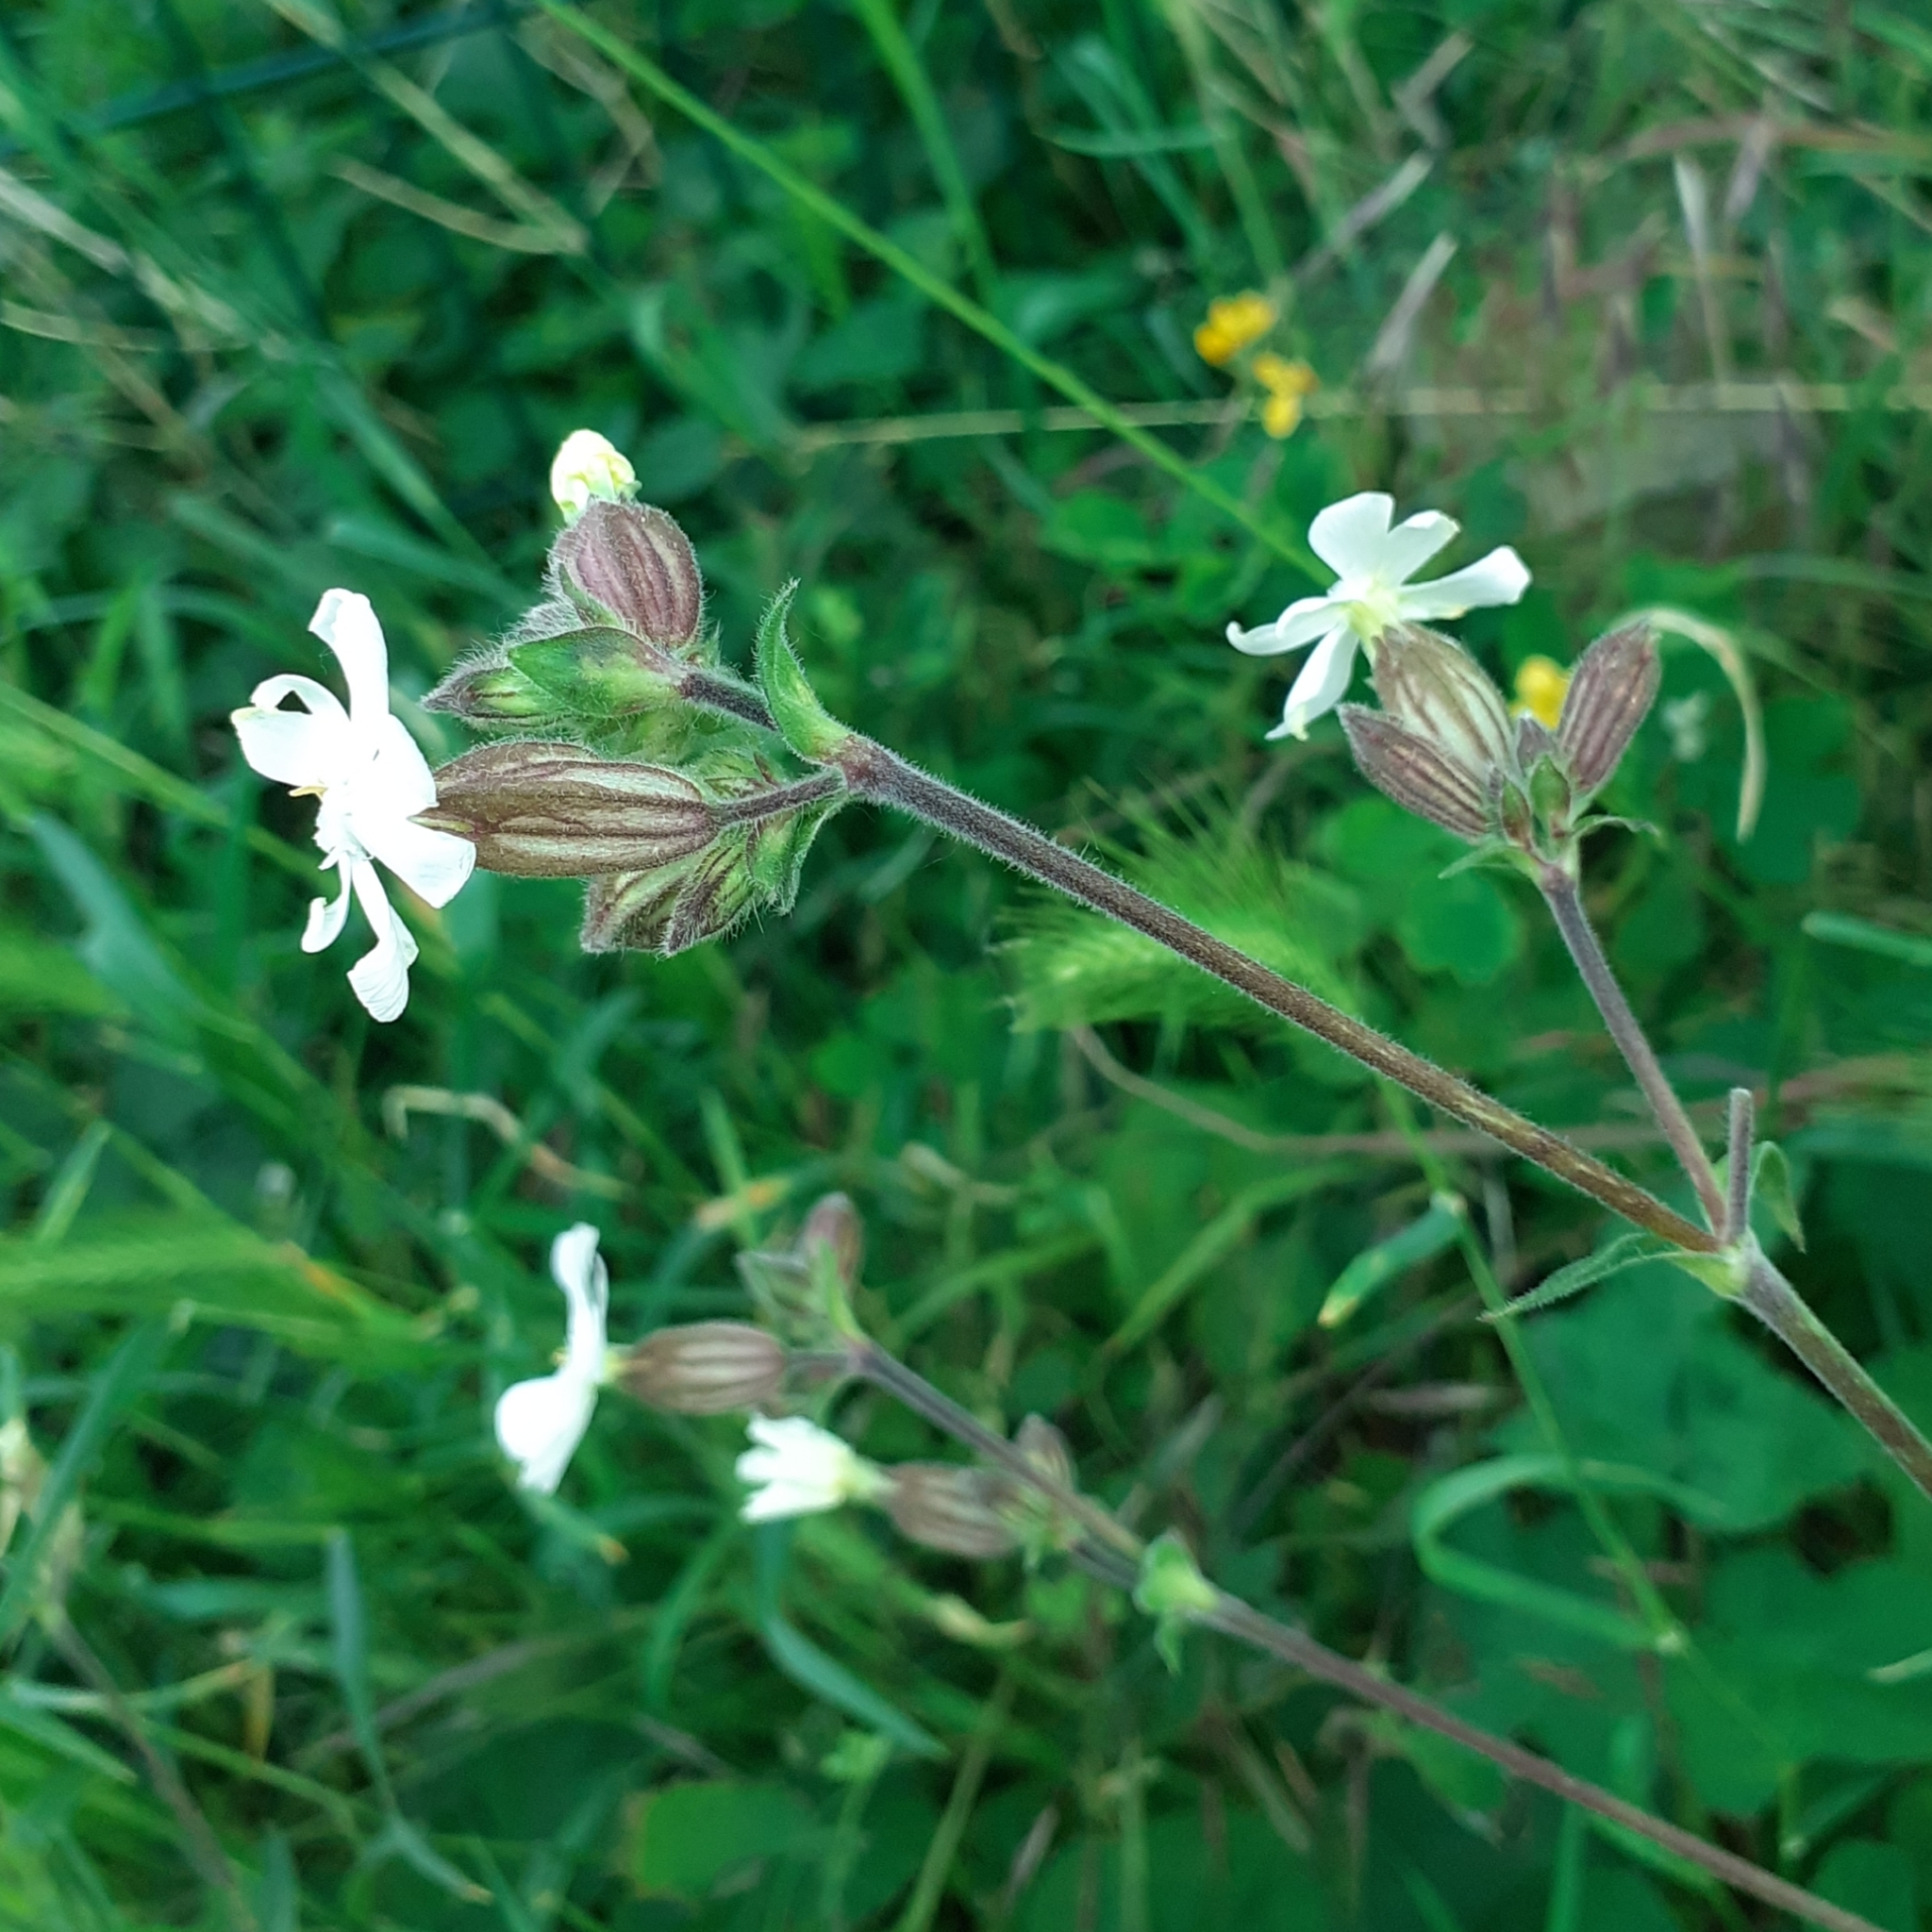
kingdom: Plantae
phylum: Tracheophyta
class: Magnoliopsida
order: Caryophyllales
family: Caryophyllaceae
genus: Silene
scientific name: Silene latifolia
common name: White campion
